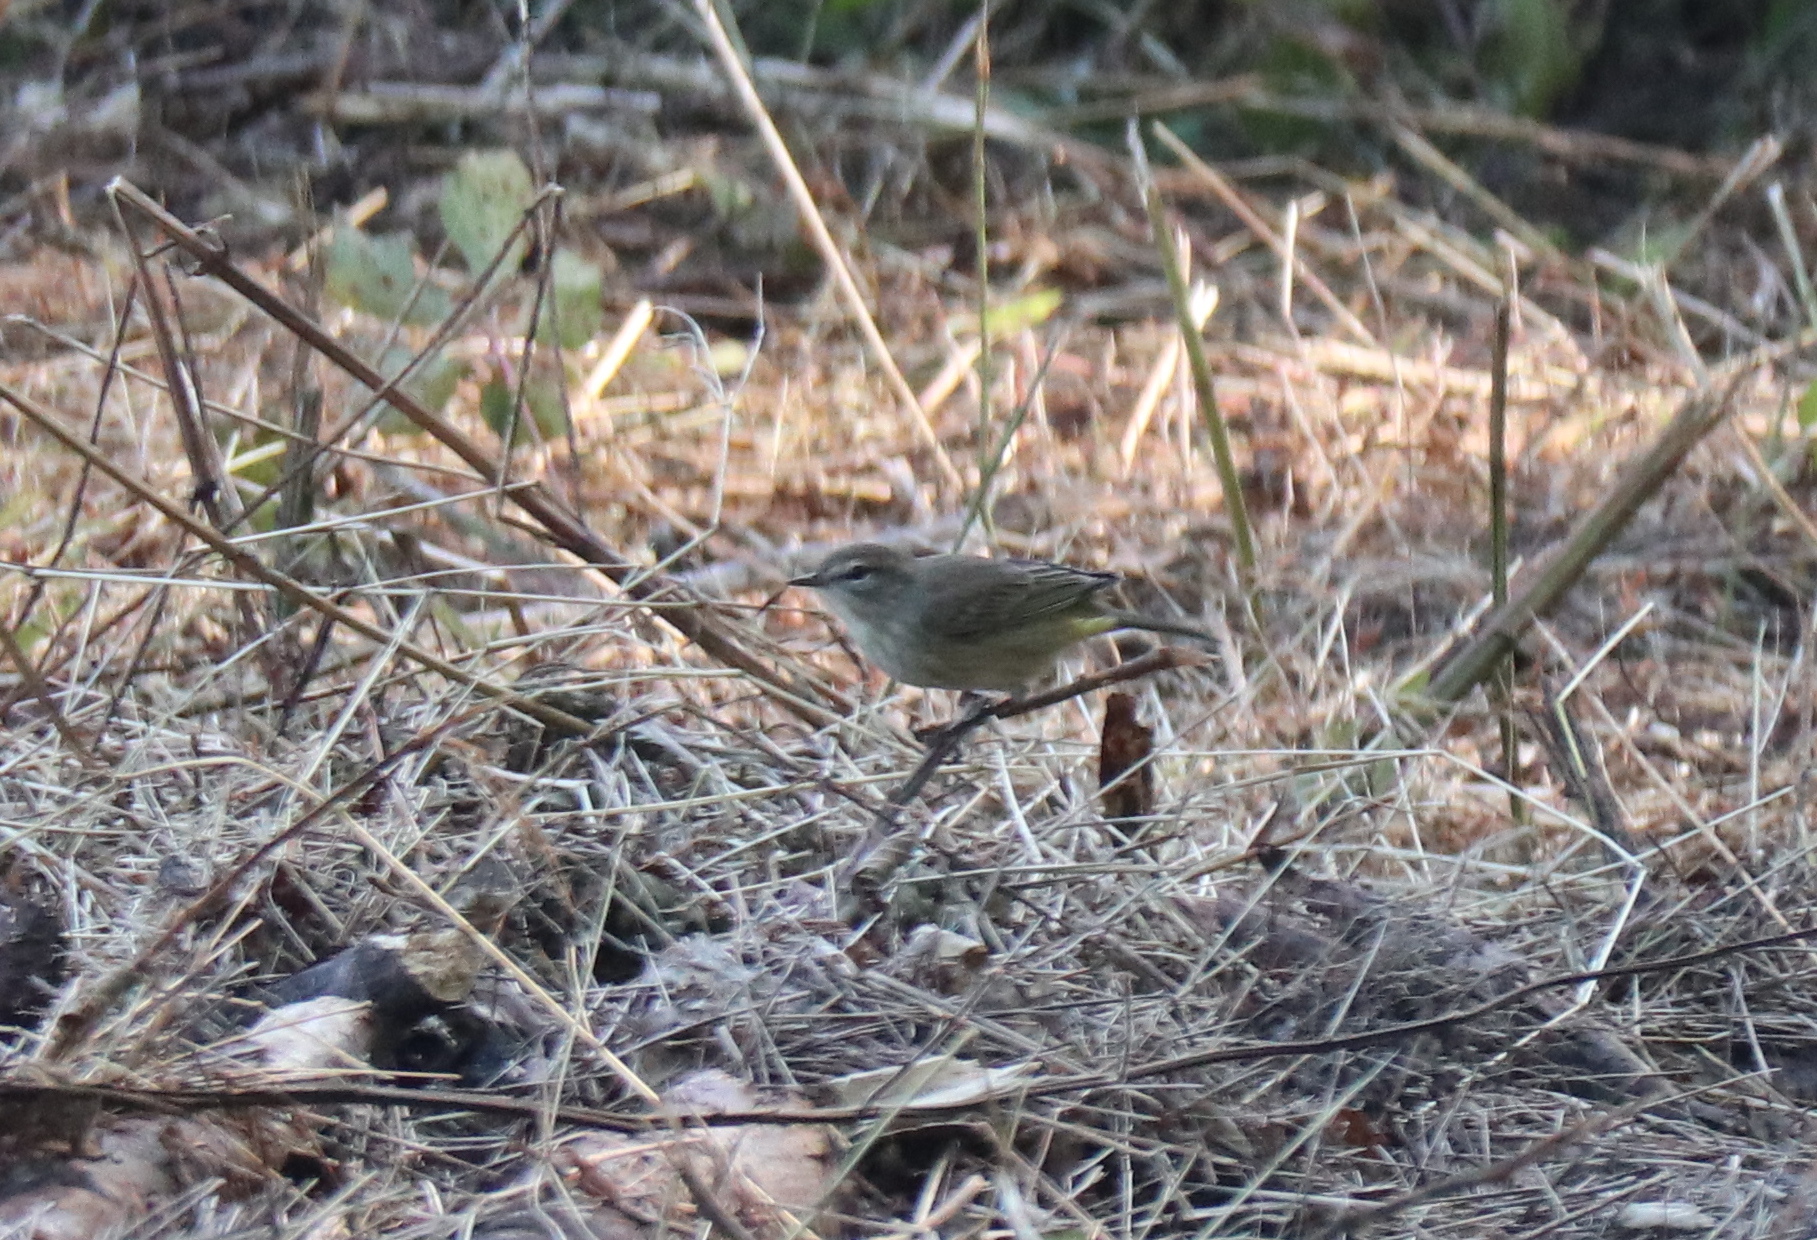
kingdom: Animalia
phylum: Chordata
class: Aves
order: Passeriformes
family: Parulidae
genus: Setophaga
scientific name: Setophaga palmarum
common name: Palm warbler
